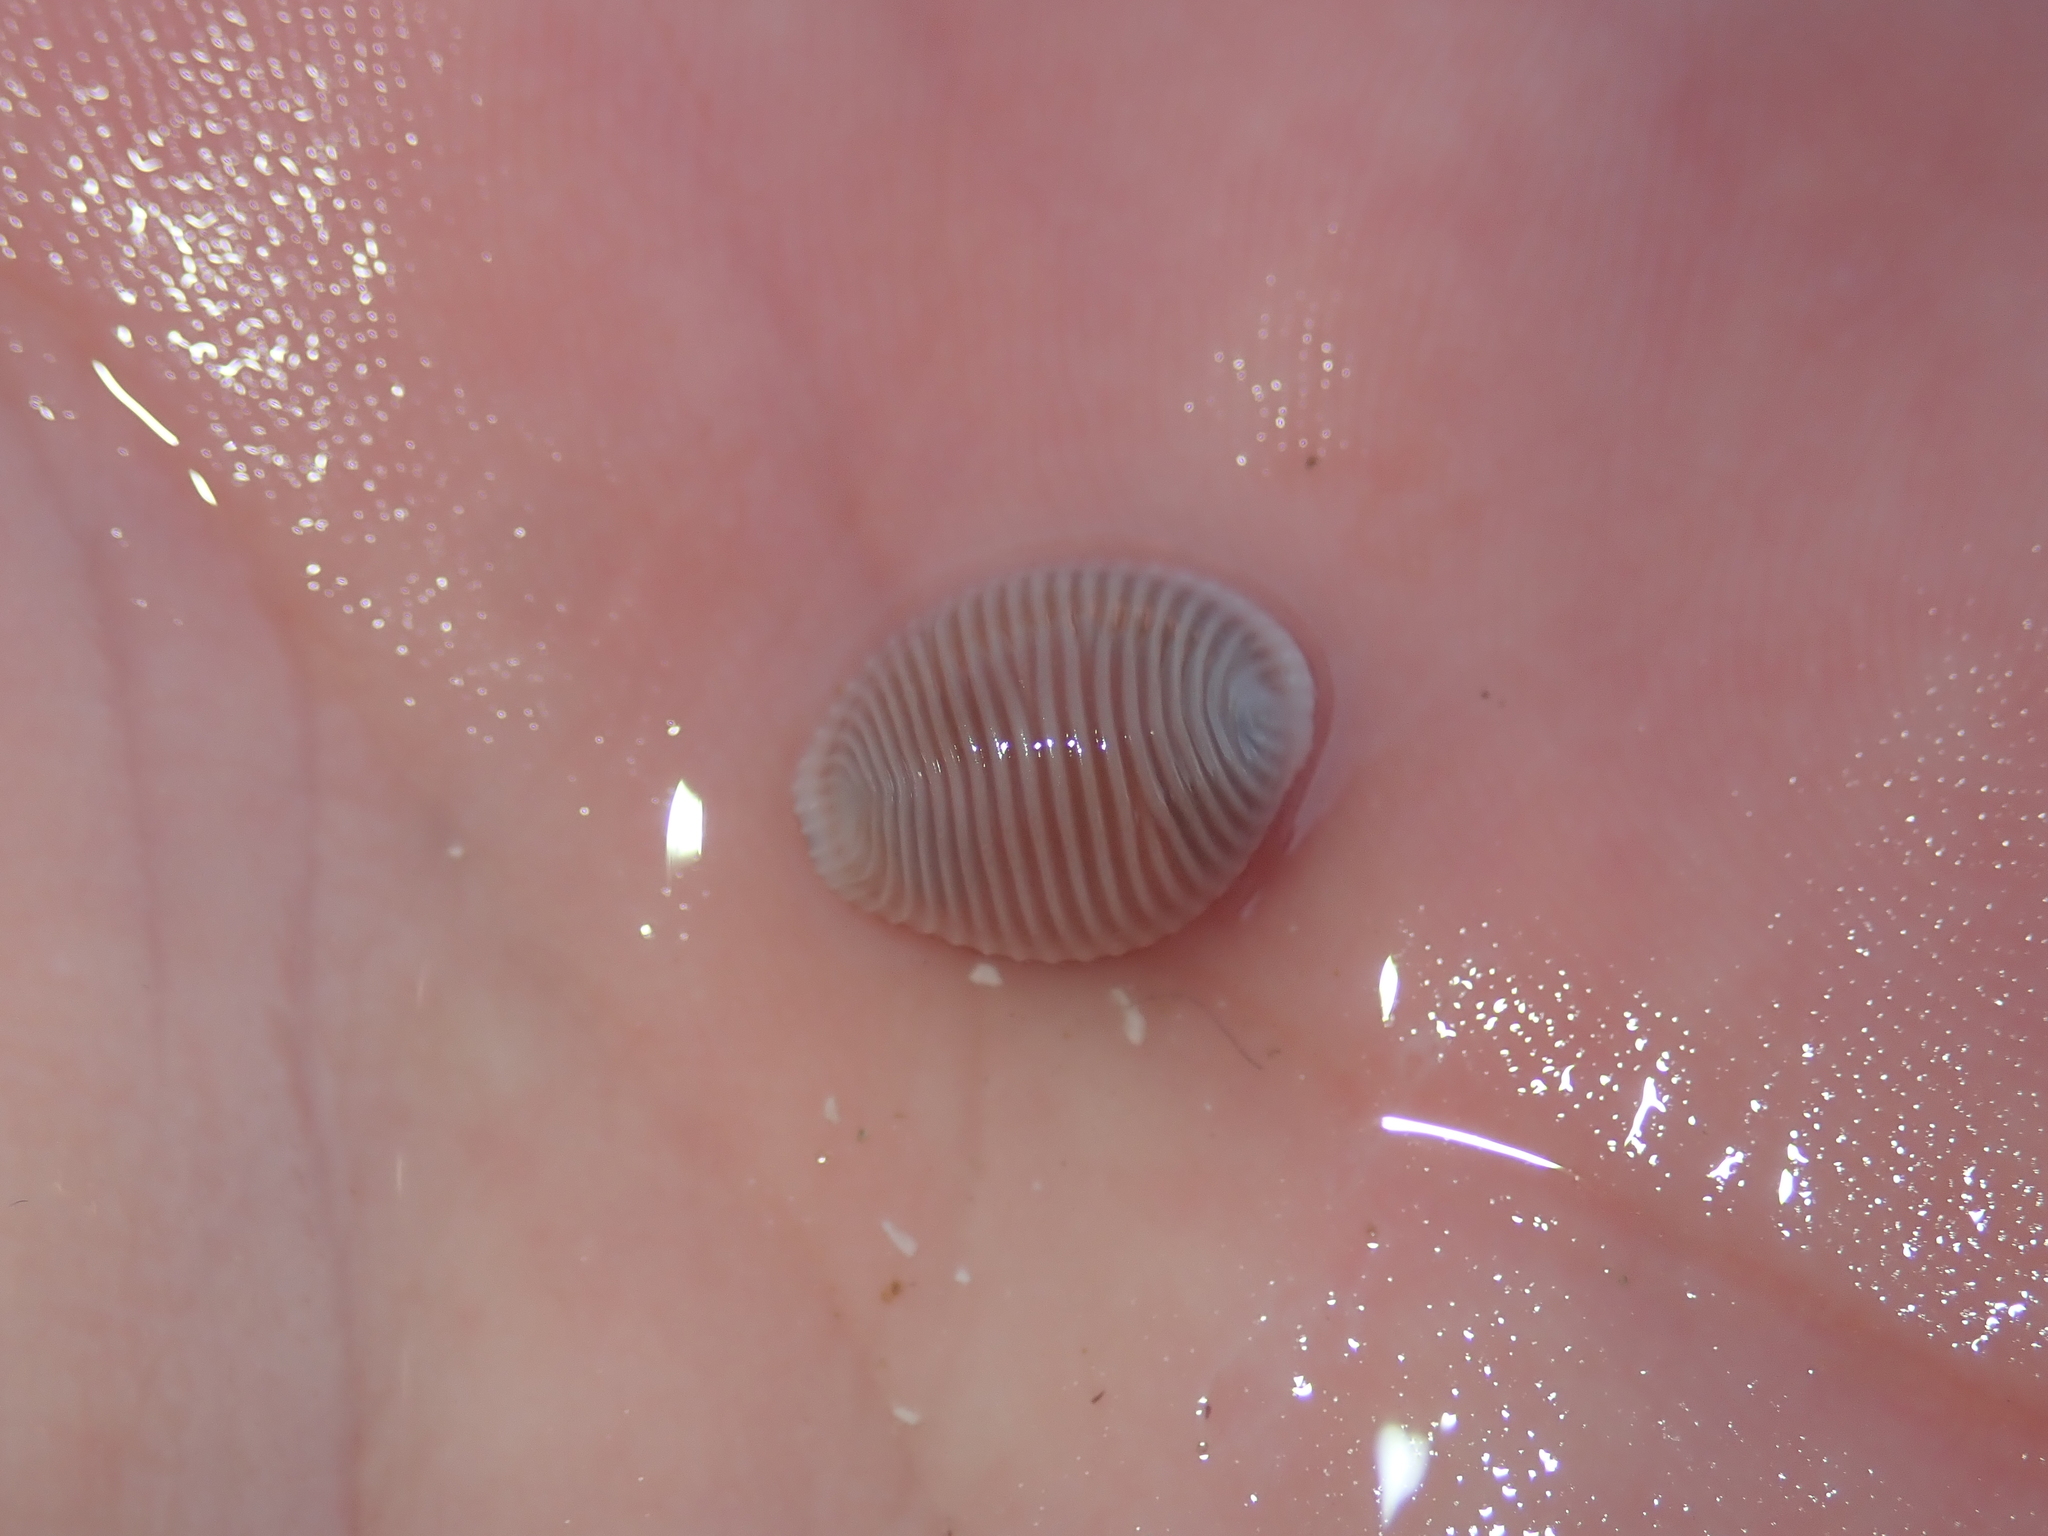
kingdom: Animalia
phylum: Mollusca
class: Gastropoda
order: Littorinimorpha
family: Triviidae
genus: Trivia
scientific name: Trivia arctica
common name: Arctic cowrie
